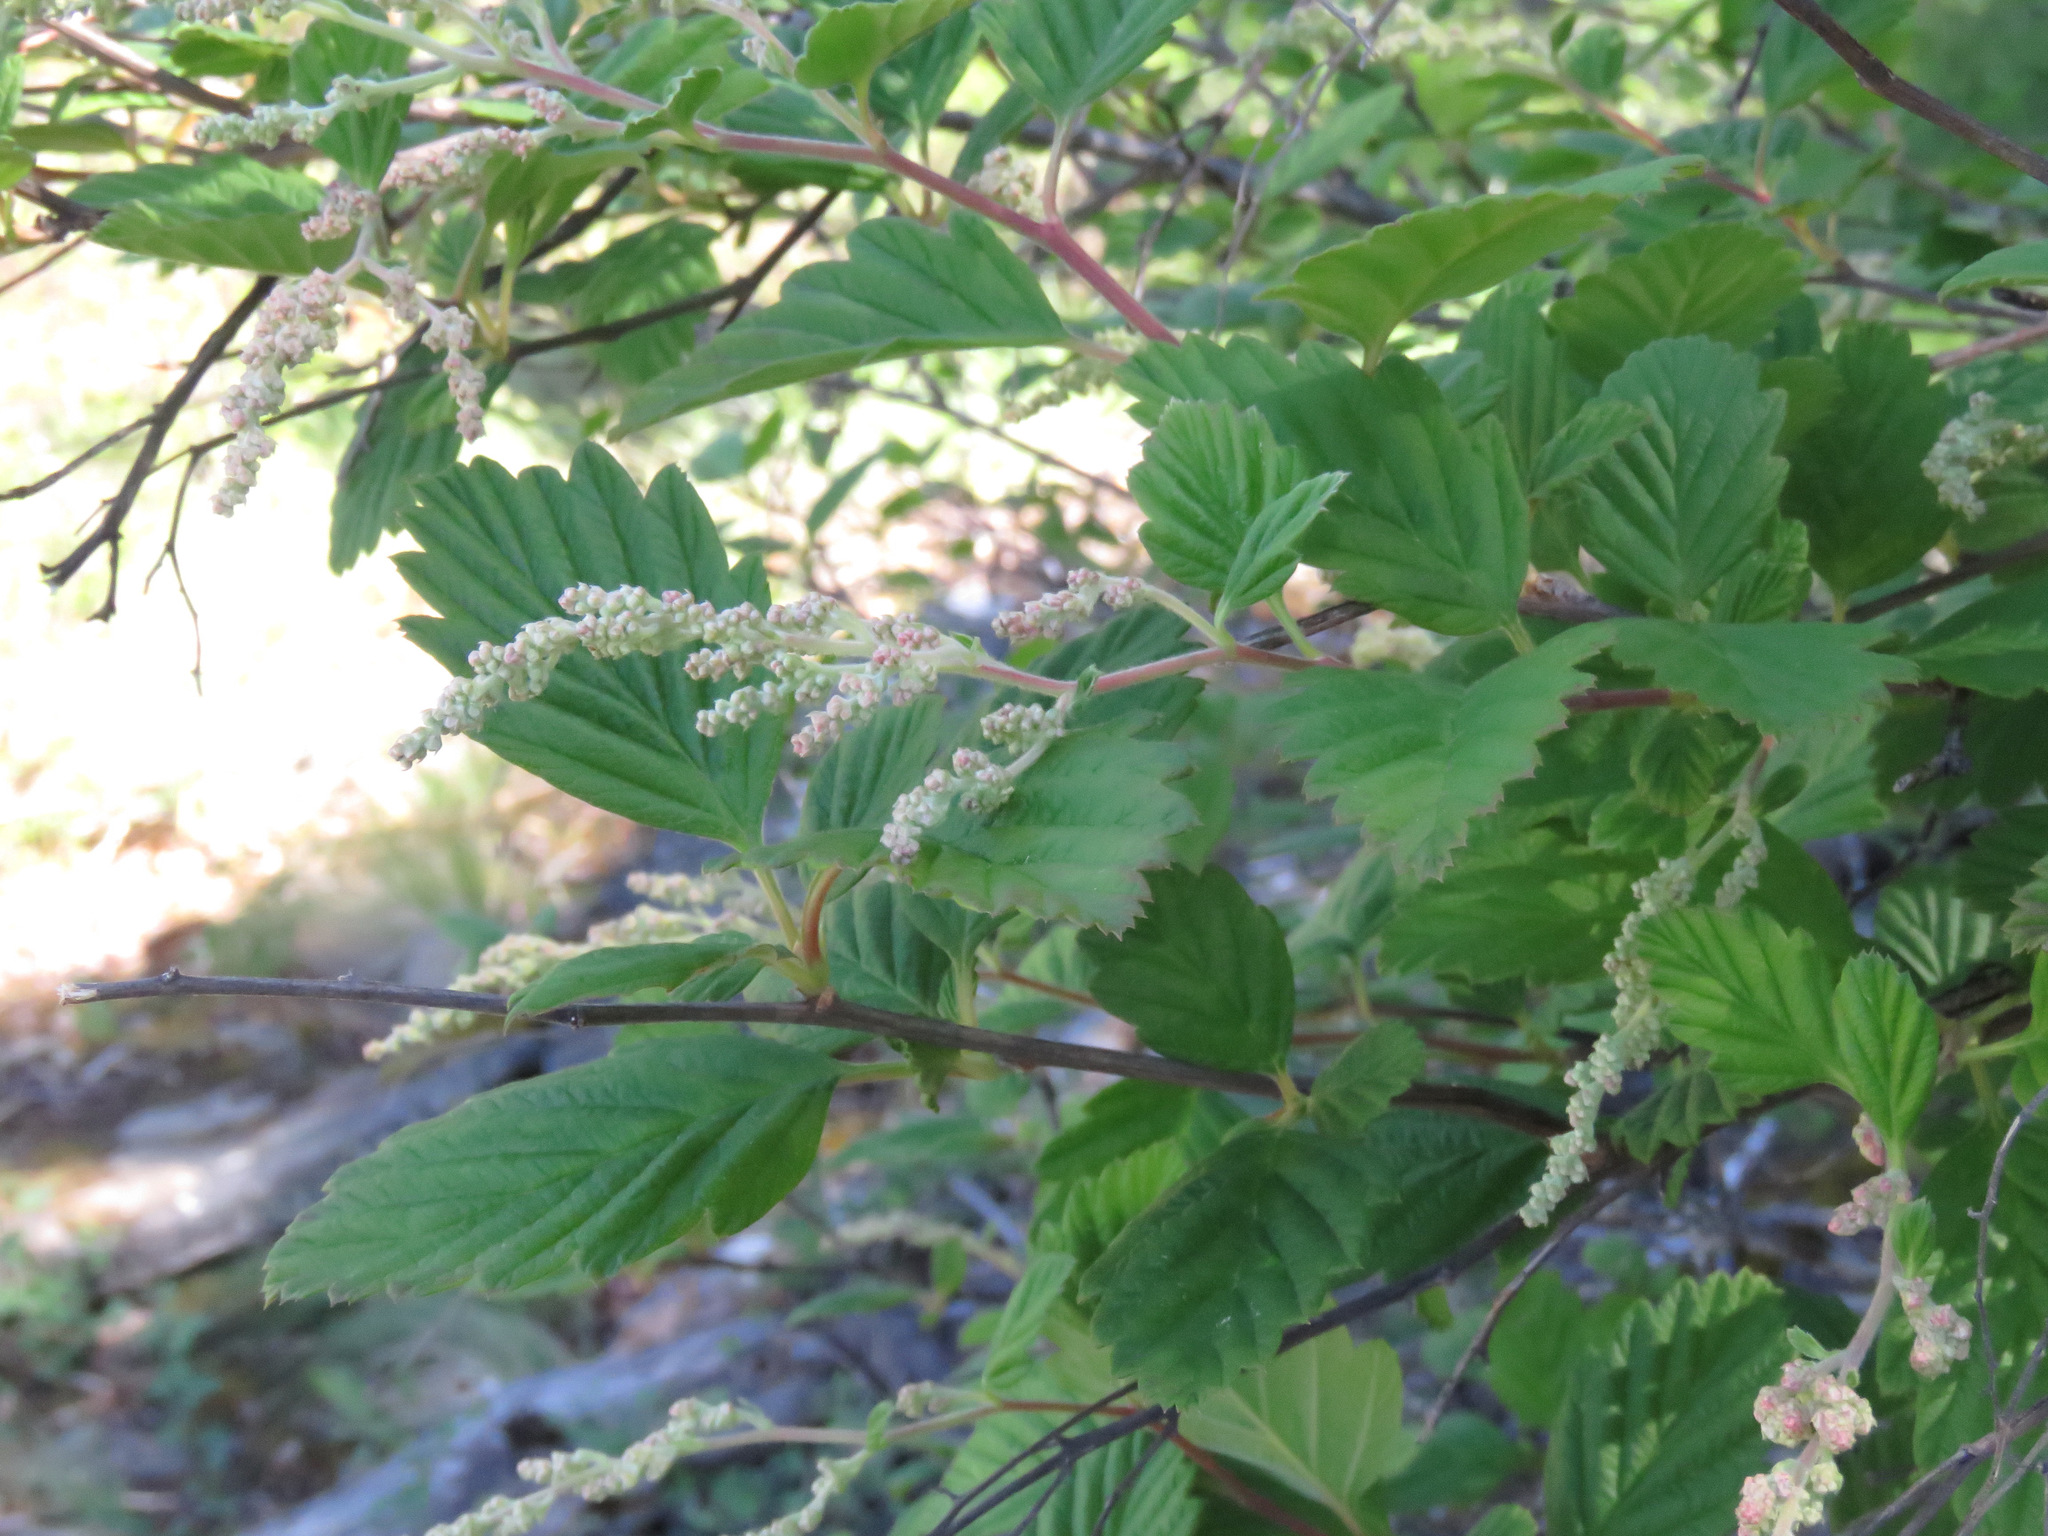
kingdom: Plantae
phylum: Tracheophyta
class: Magnoliopsida
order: Rosales
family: Rosaceae
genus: Holodiscus
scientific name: Holodiscus discolor
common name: Oceanspray
